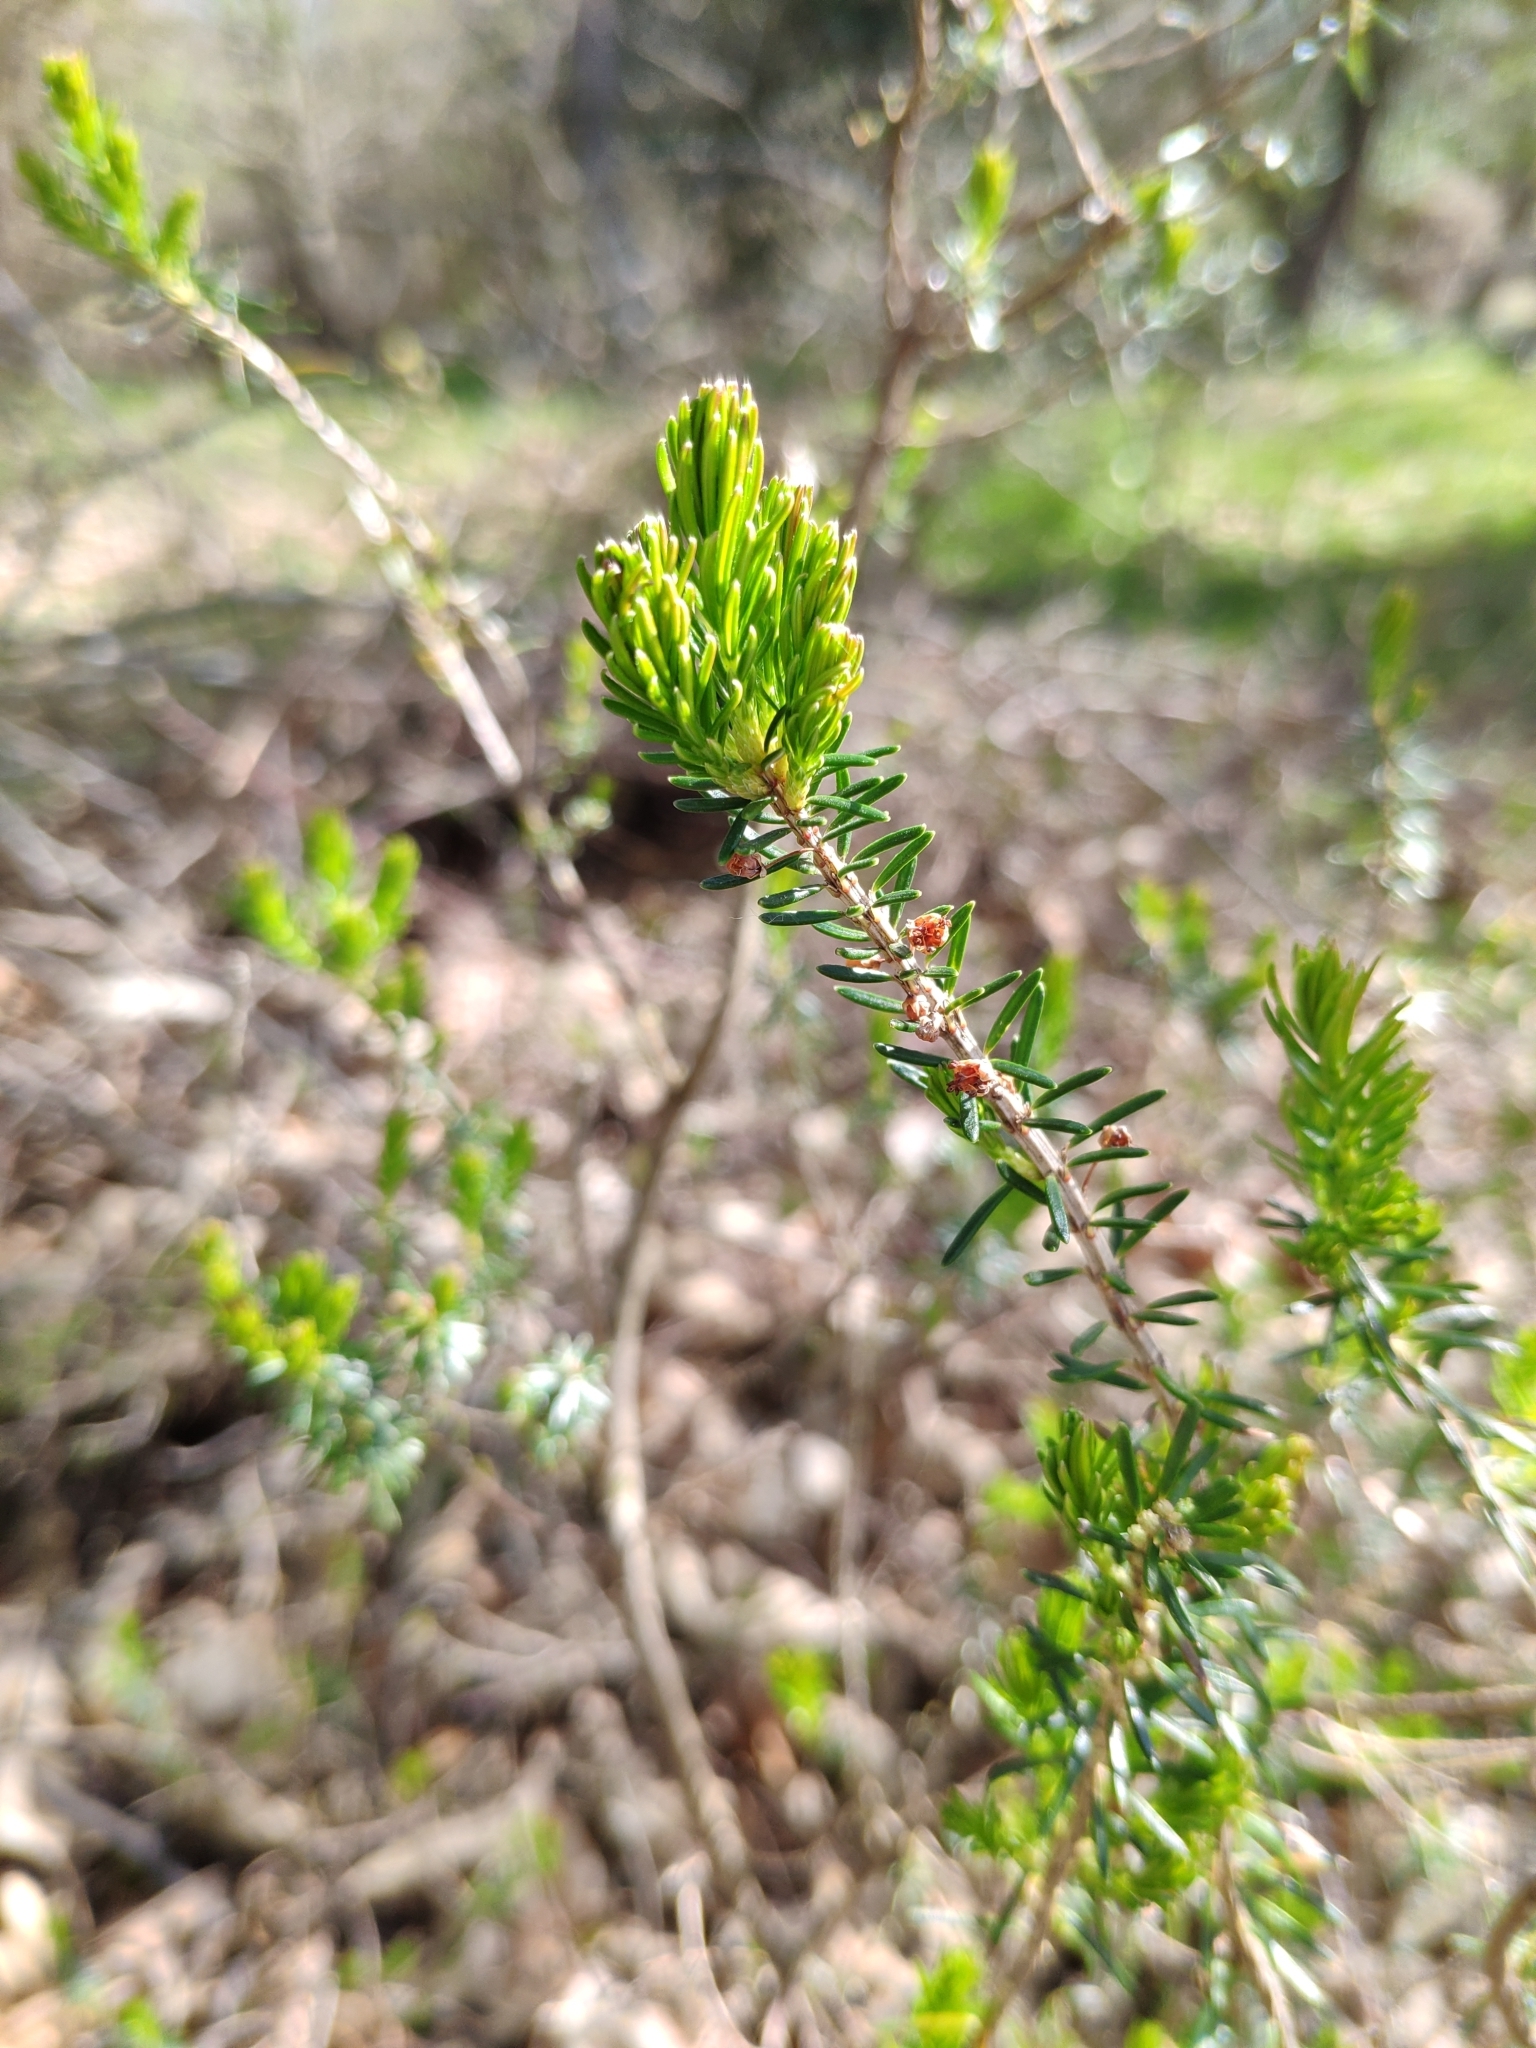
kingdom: Plantae
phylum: Tracheophyta
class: Magnoliopsida
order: Ericales
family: Ericaceae
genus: Erica
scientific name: Erica vagans
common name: Cornish heath
